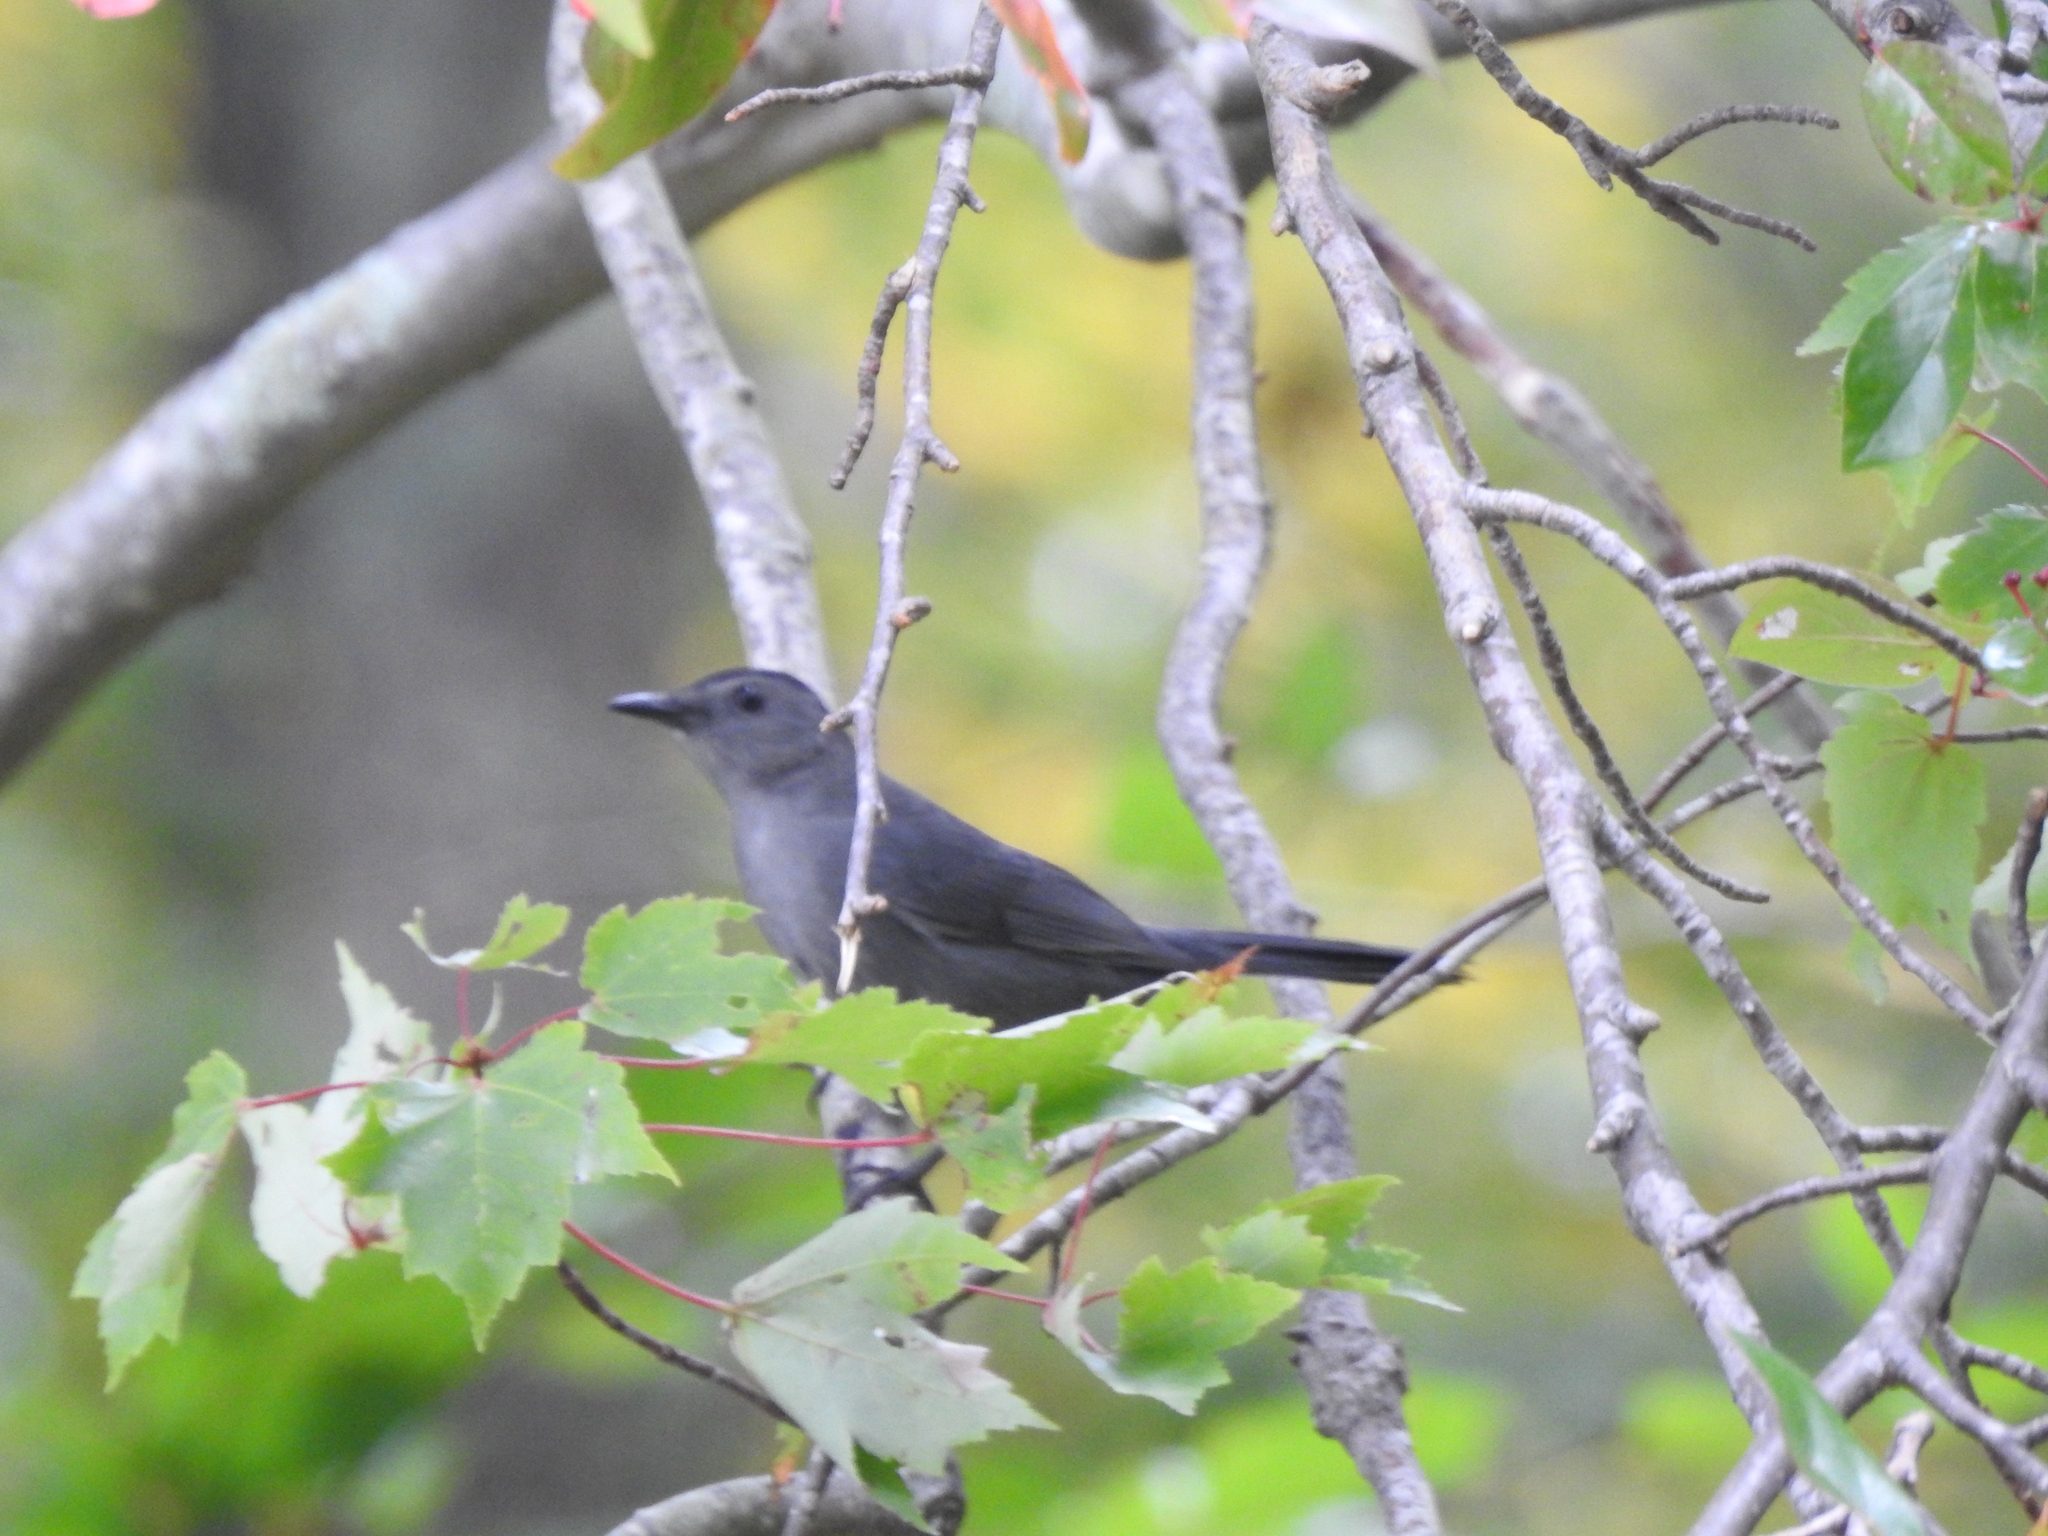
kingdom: Animalia
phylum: Chordata
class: Aves
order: Passeriformes
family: Mimidae
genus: Dumetella
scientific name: Dumetella carolinensis
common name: Gray catbird
